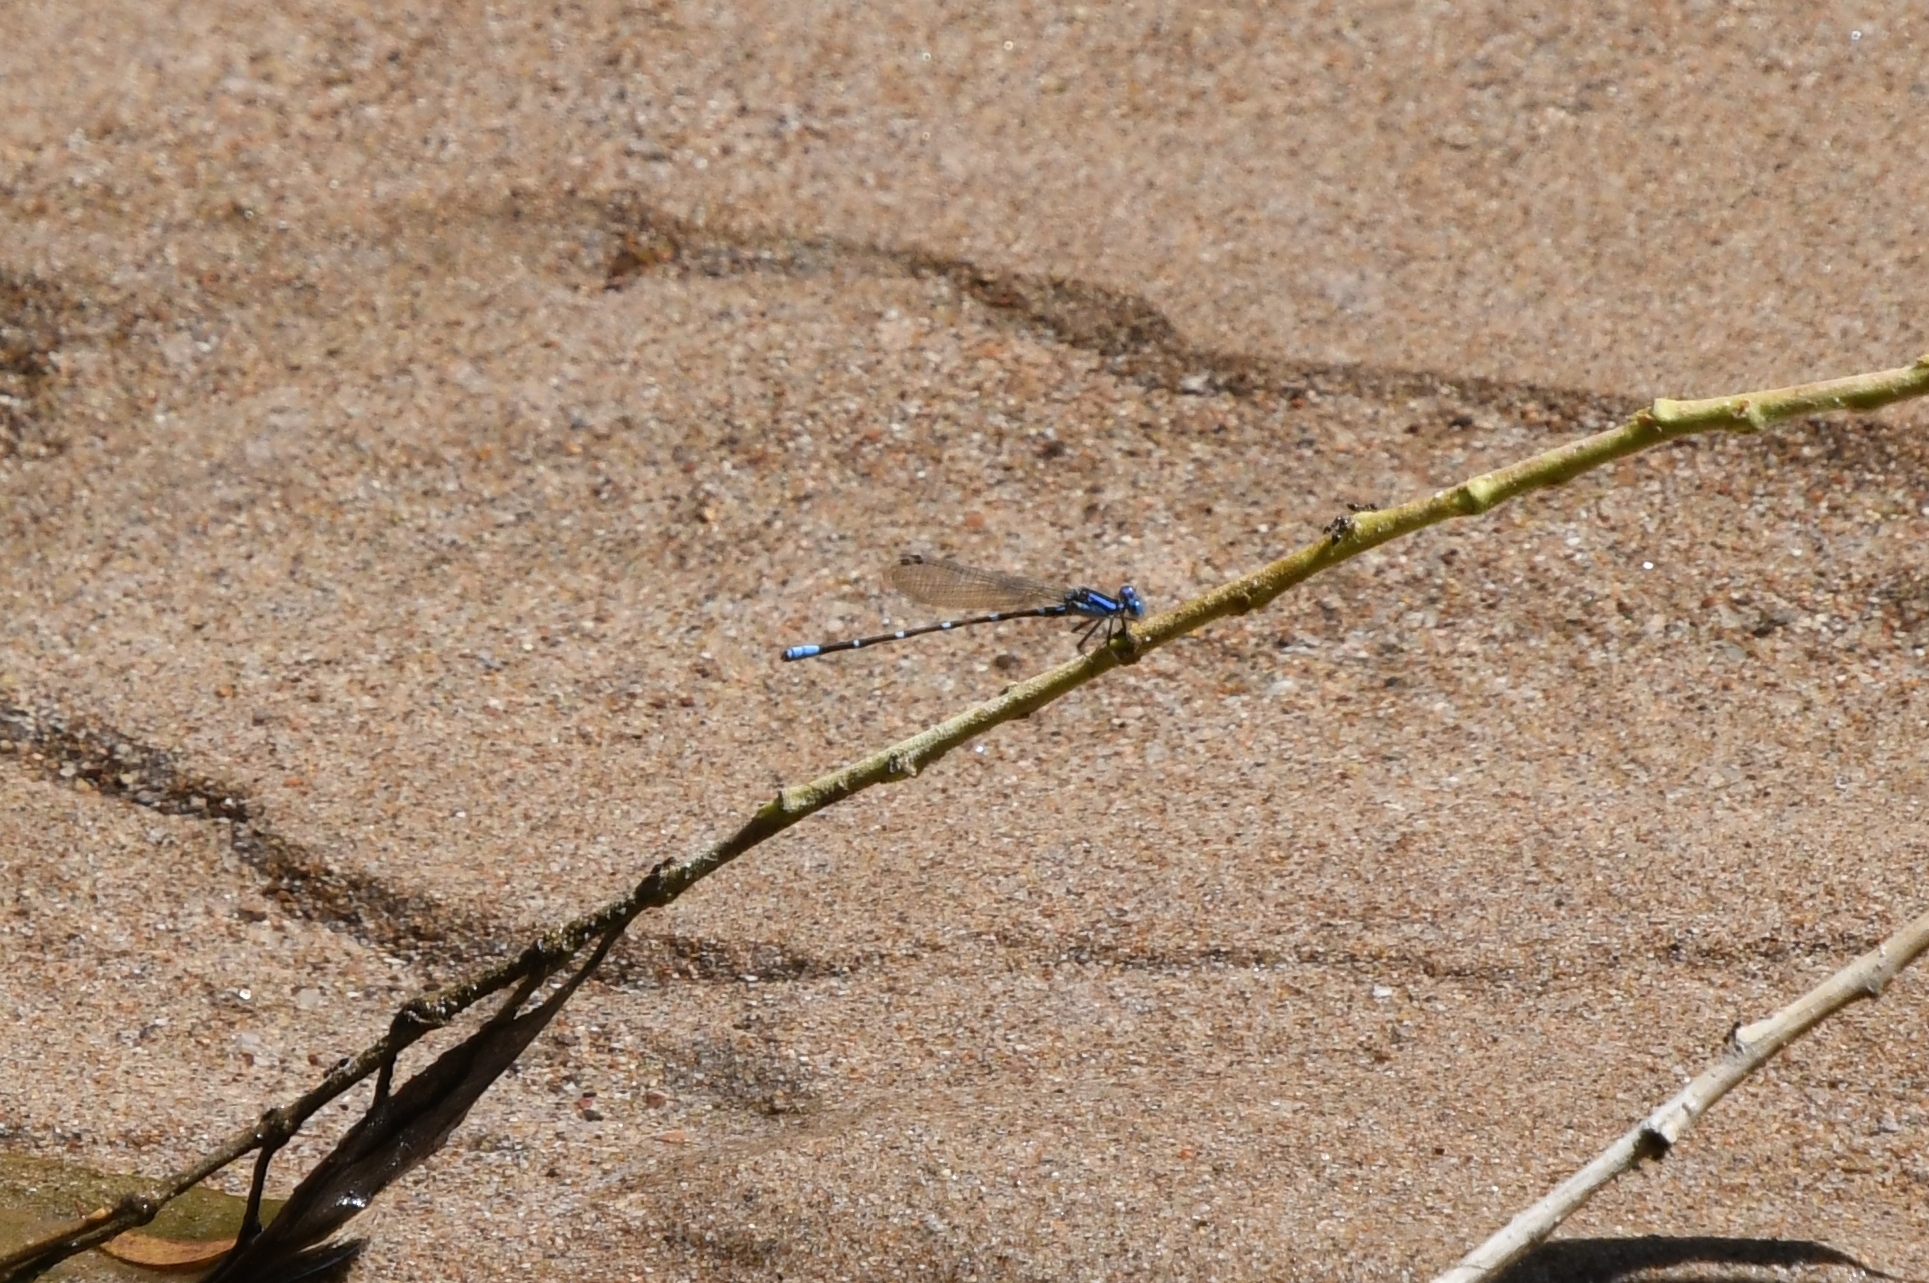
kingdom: Animalia
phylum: Arthropoda
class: Insecta
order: Odonata
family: Coenagrionidae
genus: Argia
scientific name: Argia sedula
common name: Blue-ringed dancer
